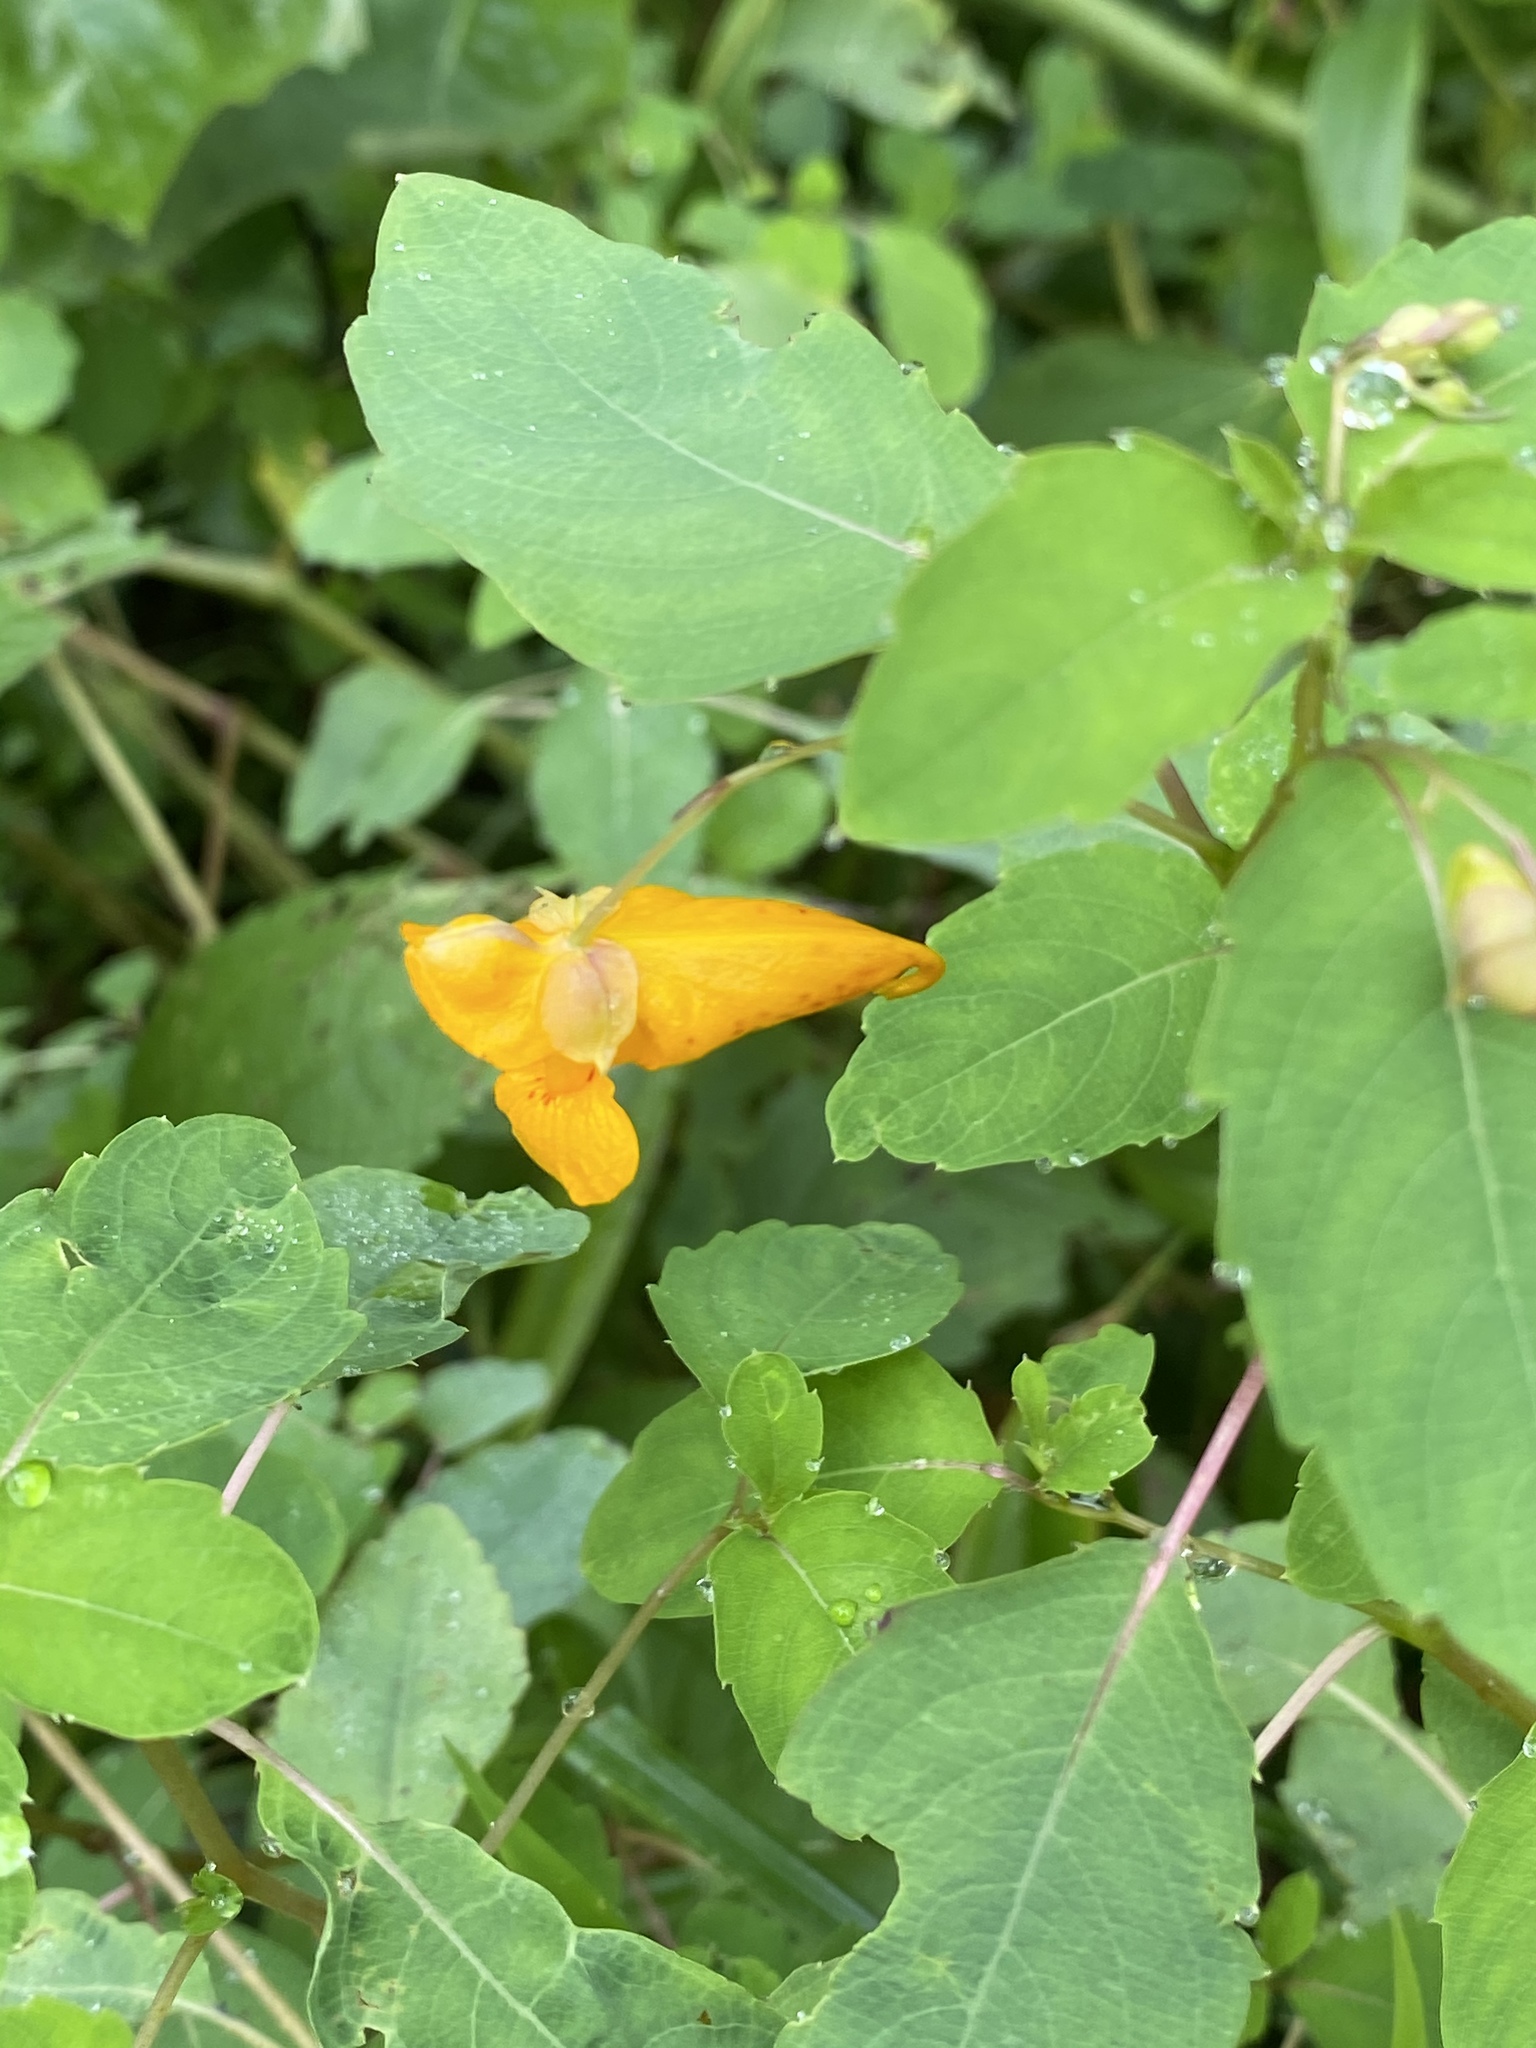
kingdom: Plantae
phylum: Tracheophyta
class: Magnoliopsida
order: Ericales
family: Balsaminaceae
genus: Impatiens
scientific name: Impatiens capensis
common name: Orange balsam
